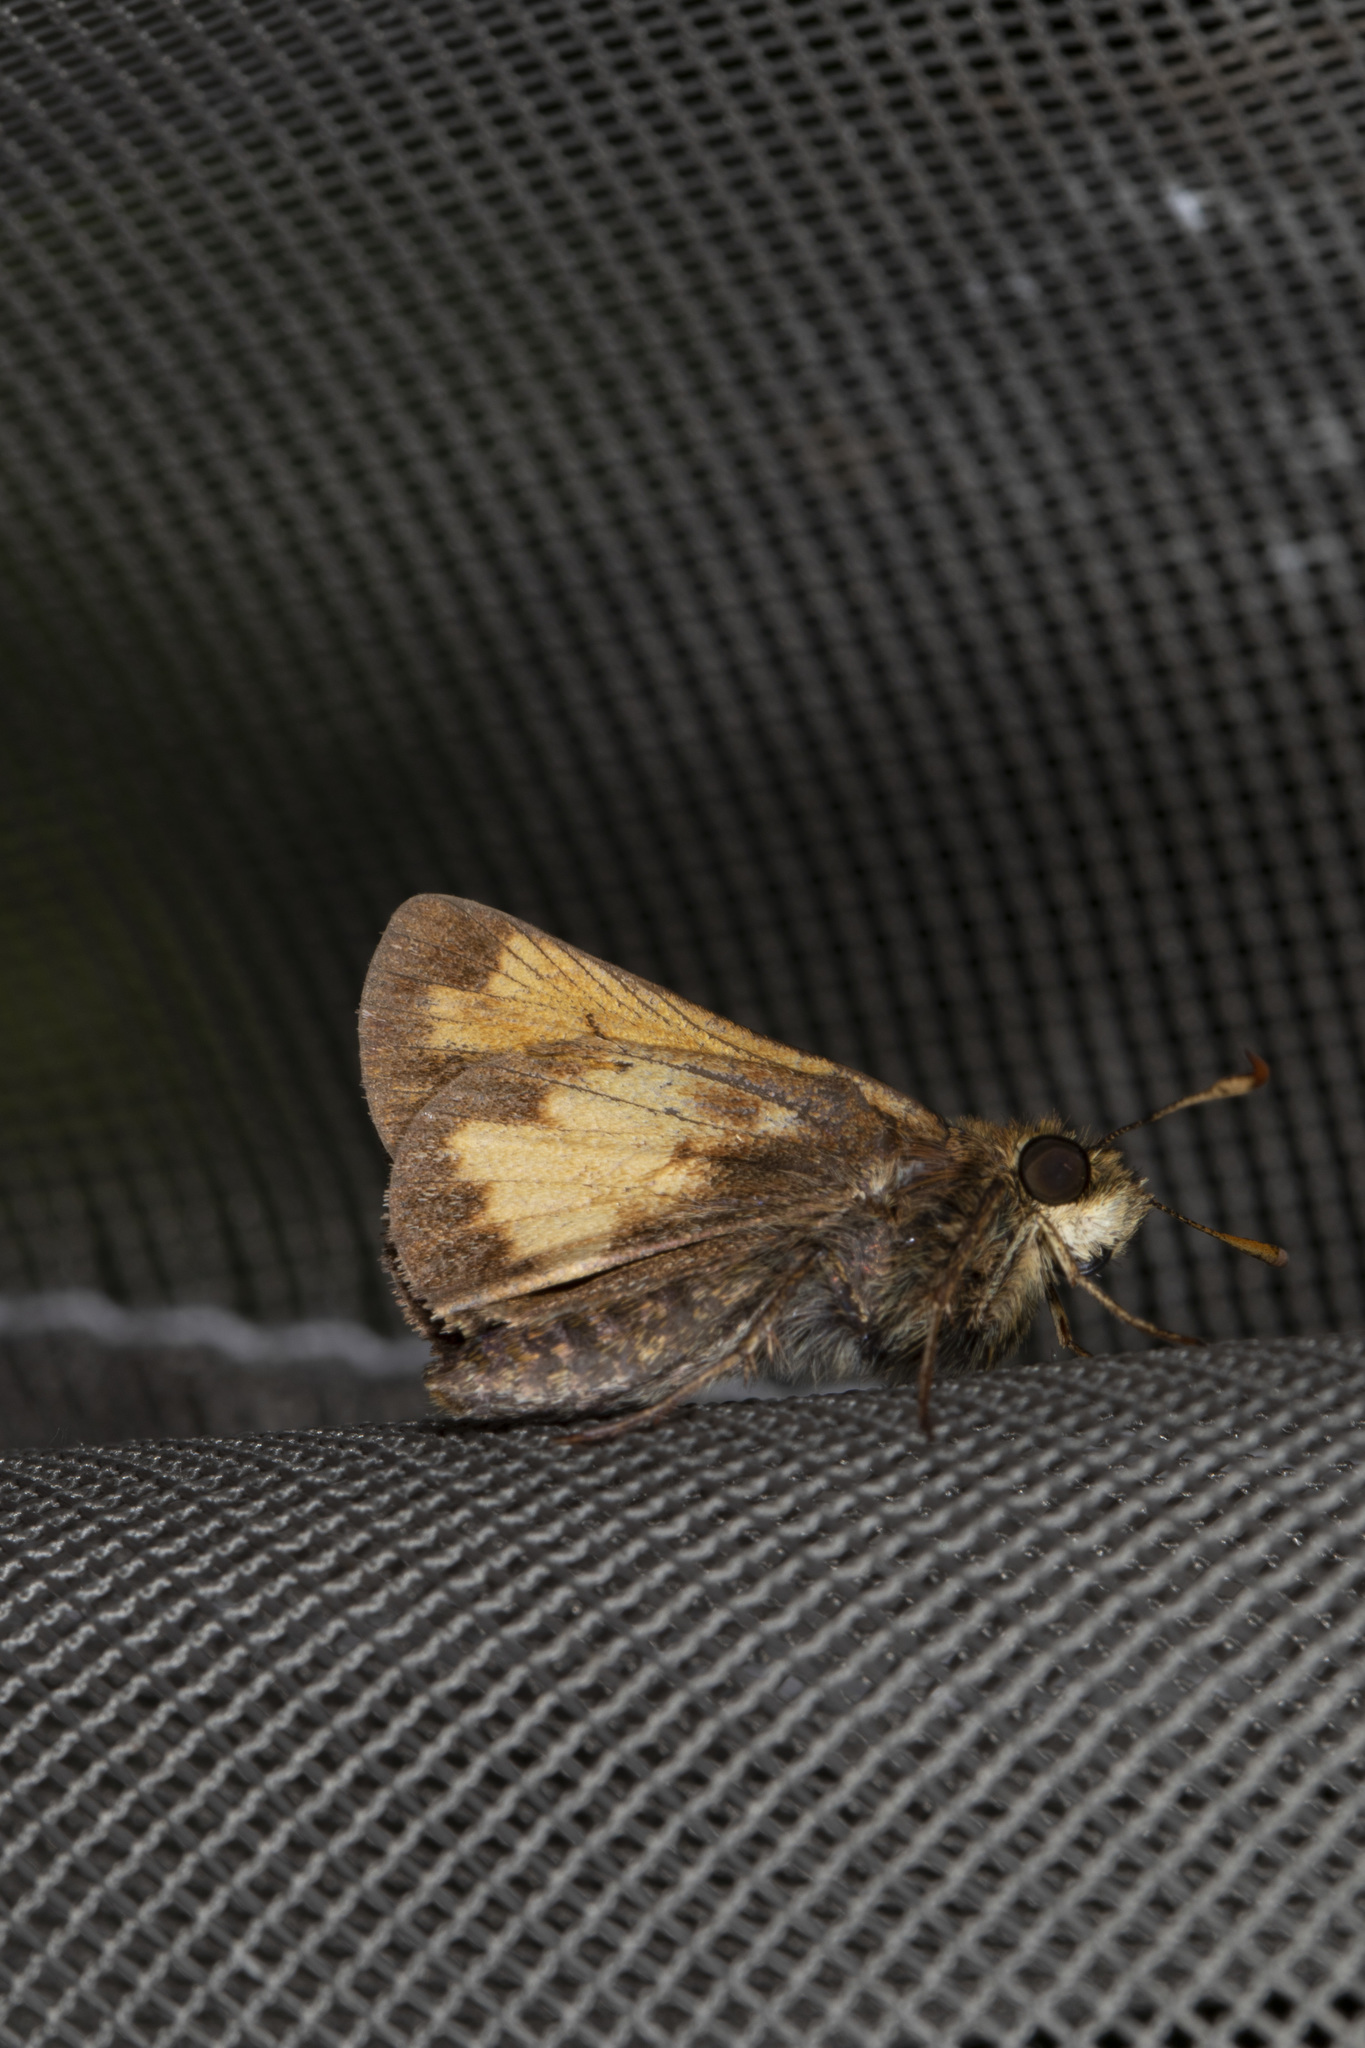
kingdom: Animalia
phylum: Arthropoda
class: Insecta
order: Lepidoptera
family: Hesperiidae
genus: Lon
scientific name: Lon hobomok
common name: Hobomok skipper
